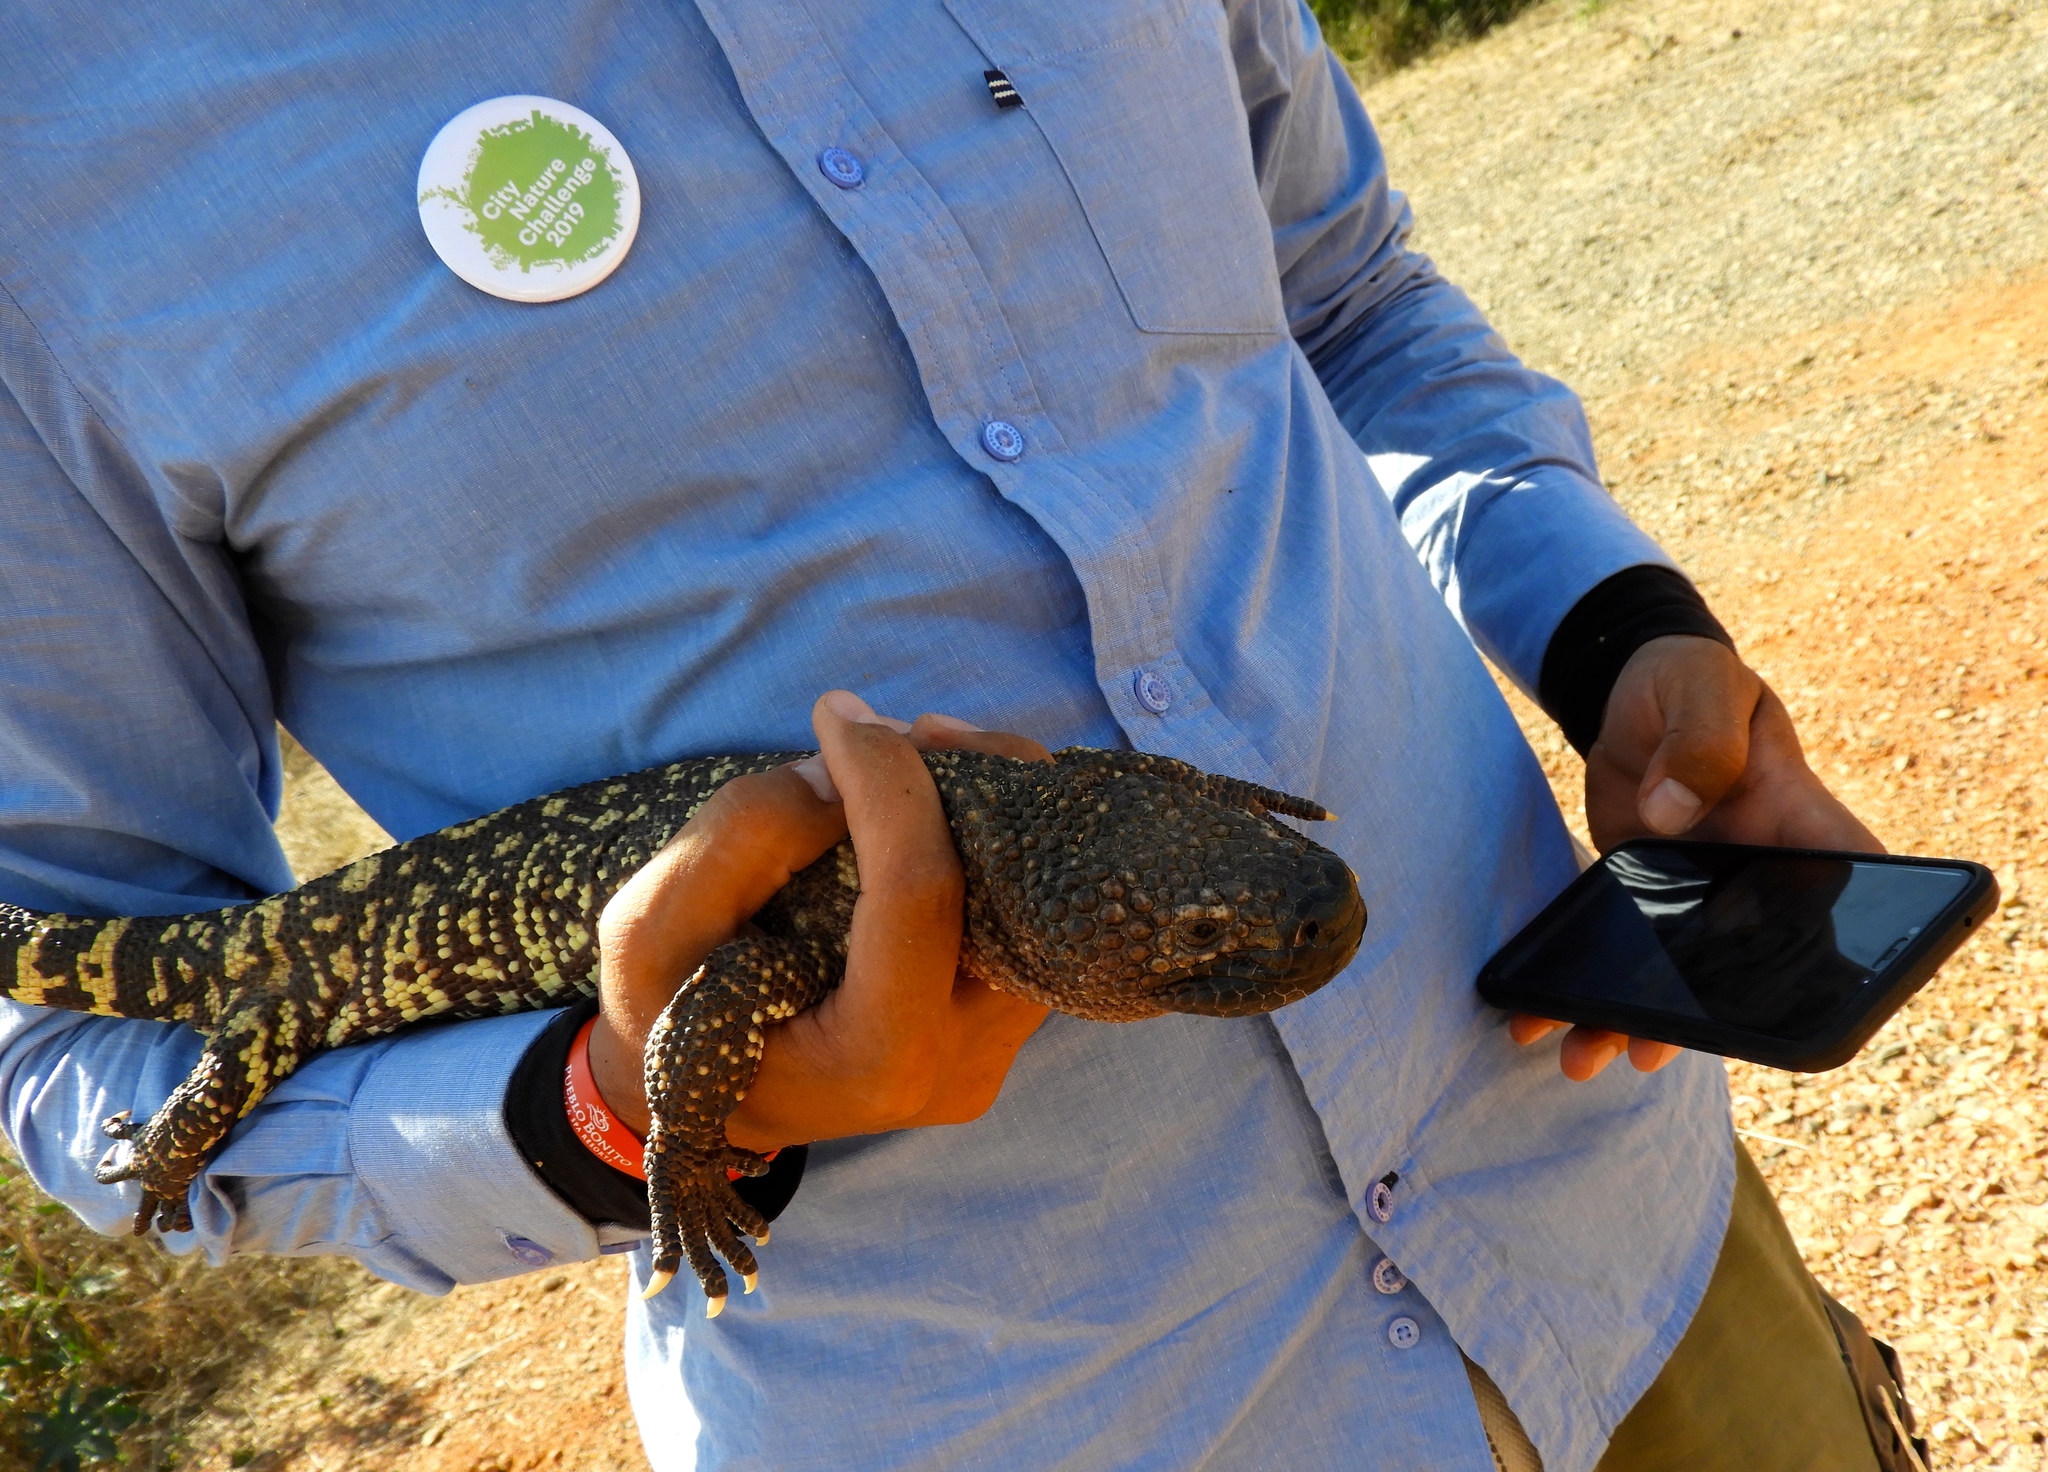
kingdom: Animalia
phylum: Chordata
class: Squamata
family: Helodermatidae
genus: Heloderma
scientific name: Heloderma horridum
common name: Mexican beaded lizard
